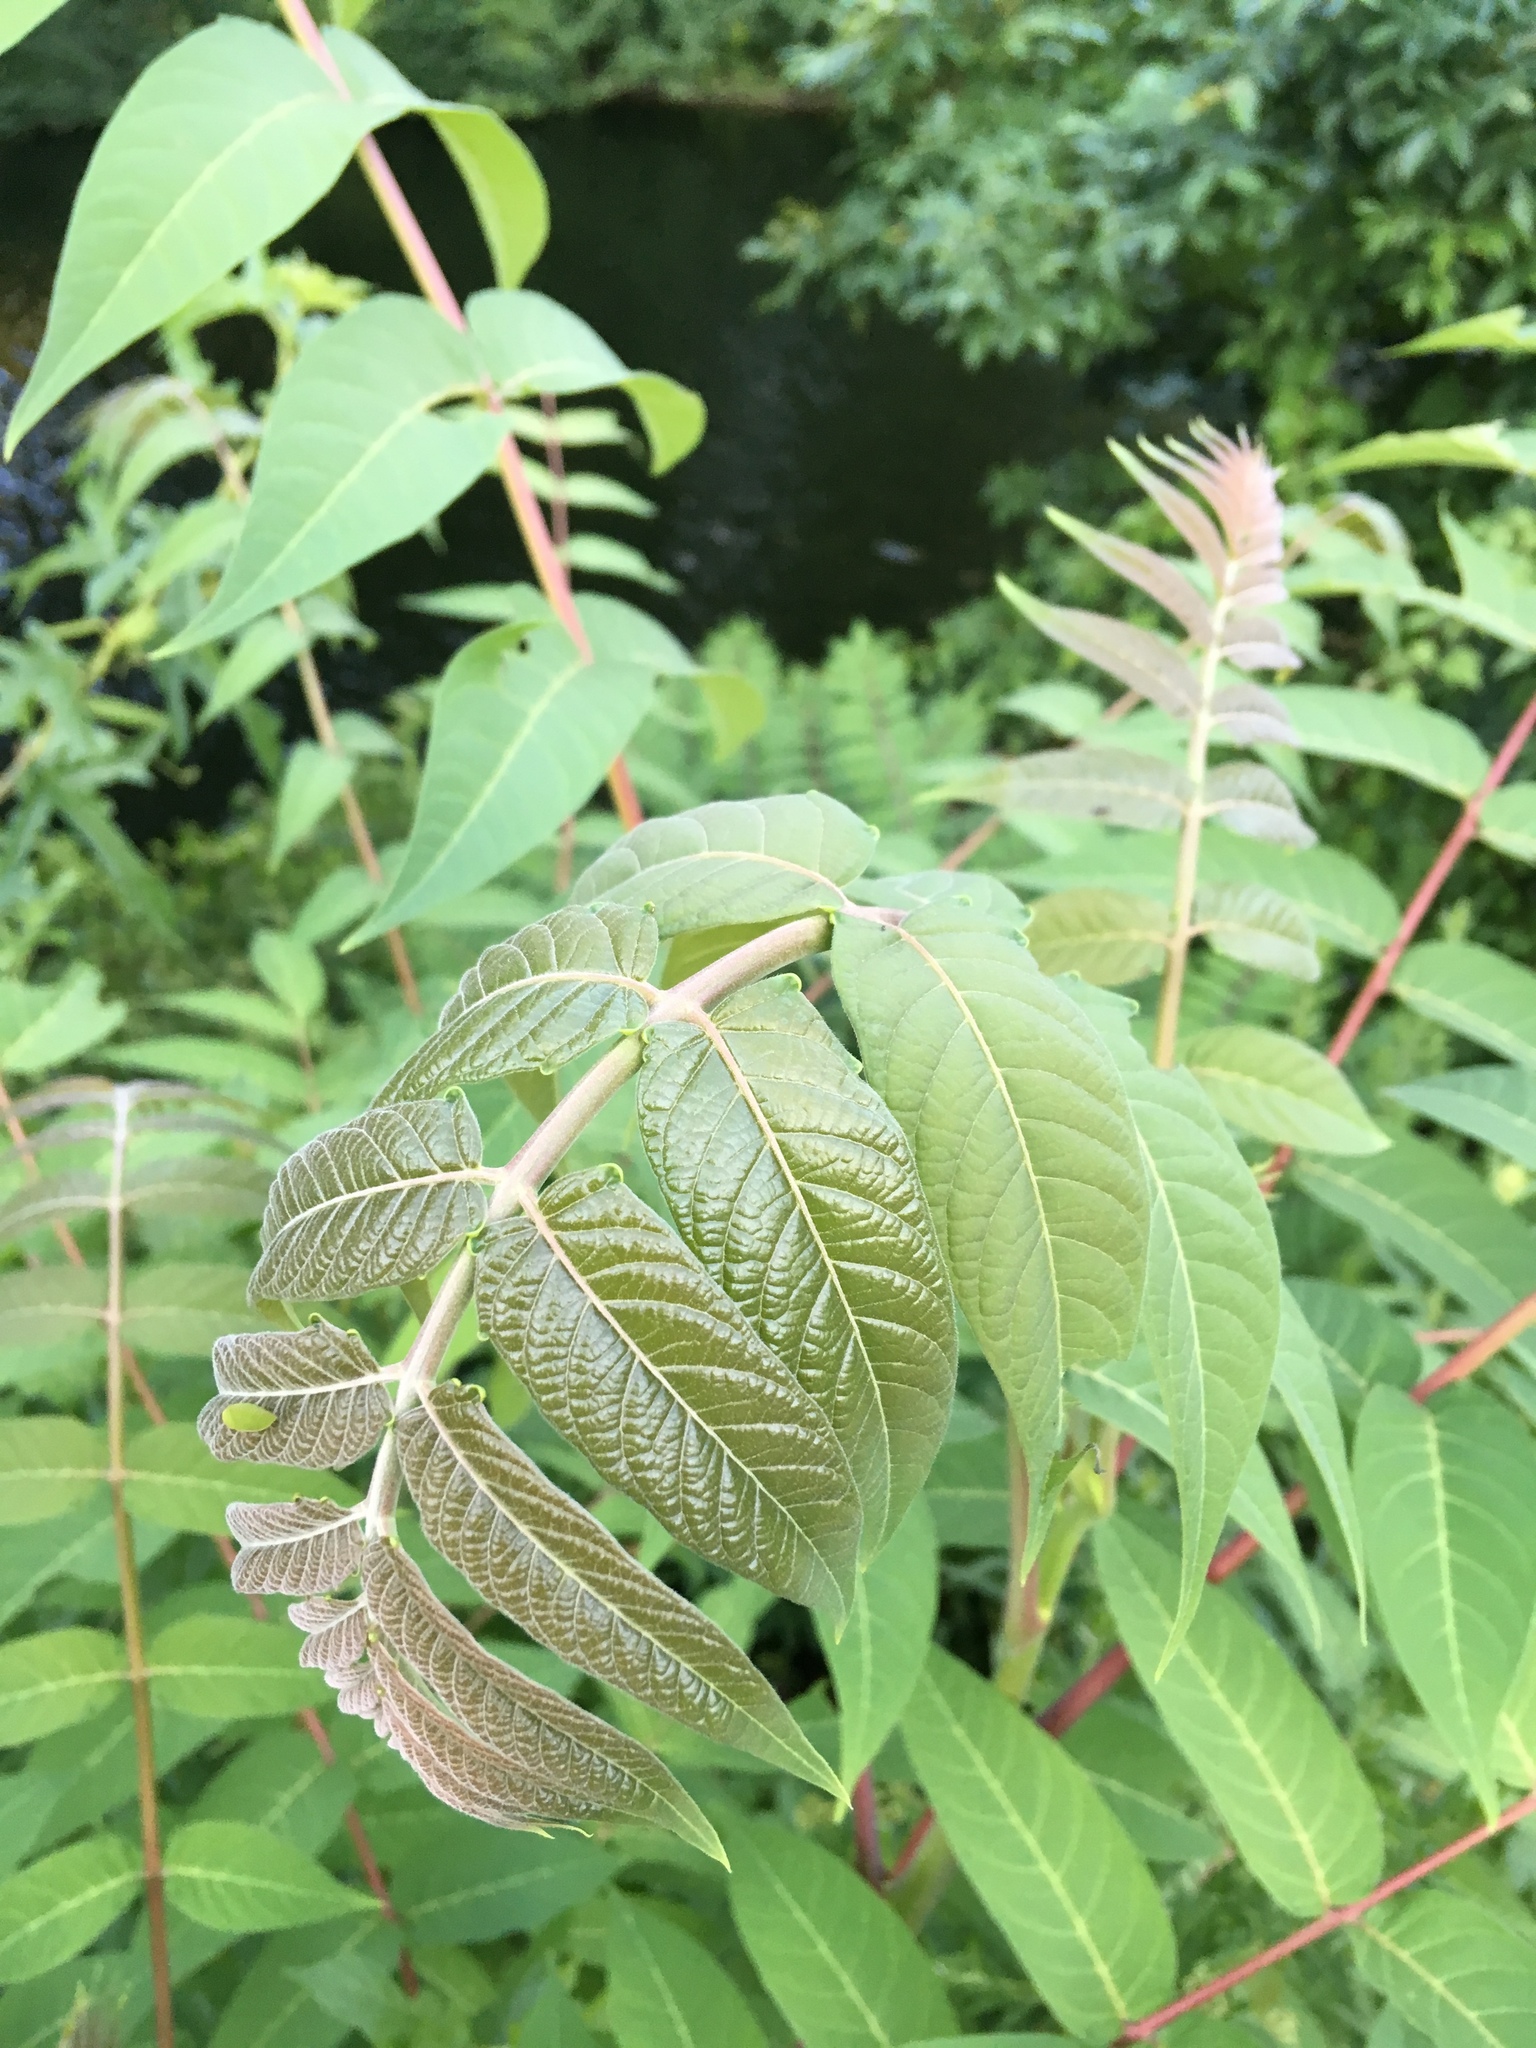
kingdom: Plantae
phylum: Tracheophyta
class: Magnoliopsida
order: Sapindales
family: Simaroubaceae
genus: Ailanthus
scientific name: Ailanthus altissima
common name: Tree-of-heaven
